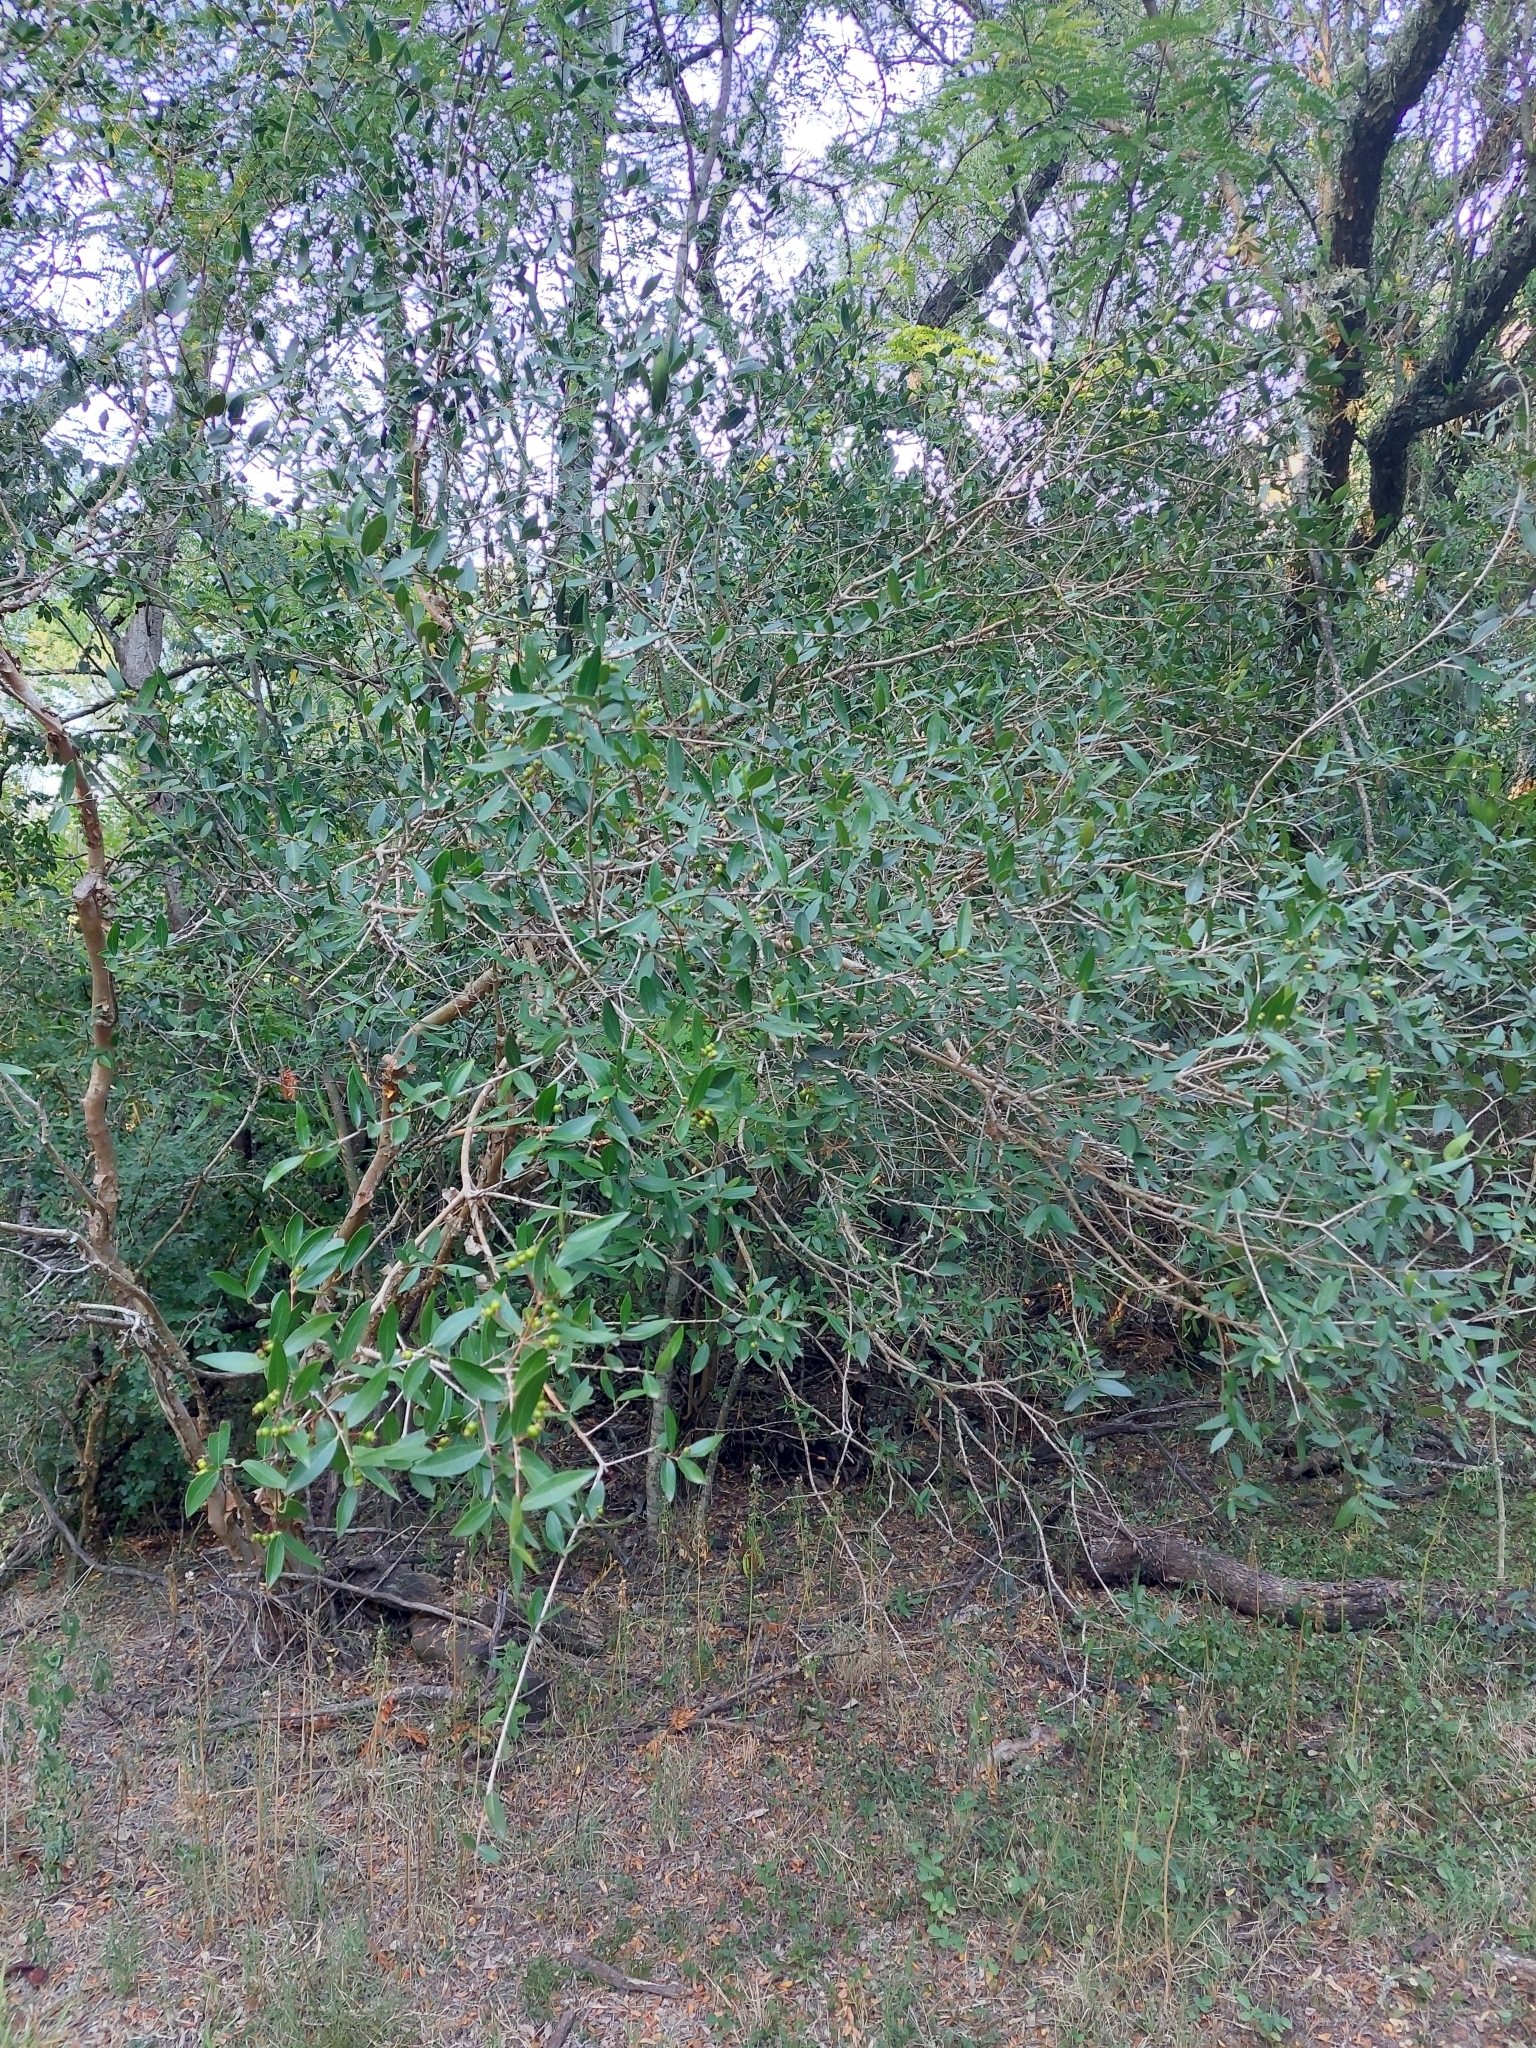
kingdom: Plantae
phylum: Tracheophyta
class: Magnoliopsida
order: Myrtales
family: Myrtaceae
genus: Myrcianthes
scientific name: Myrcianthes cisplatensis
